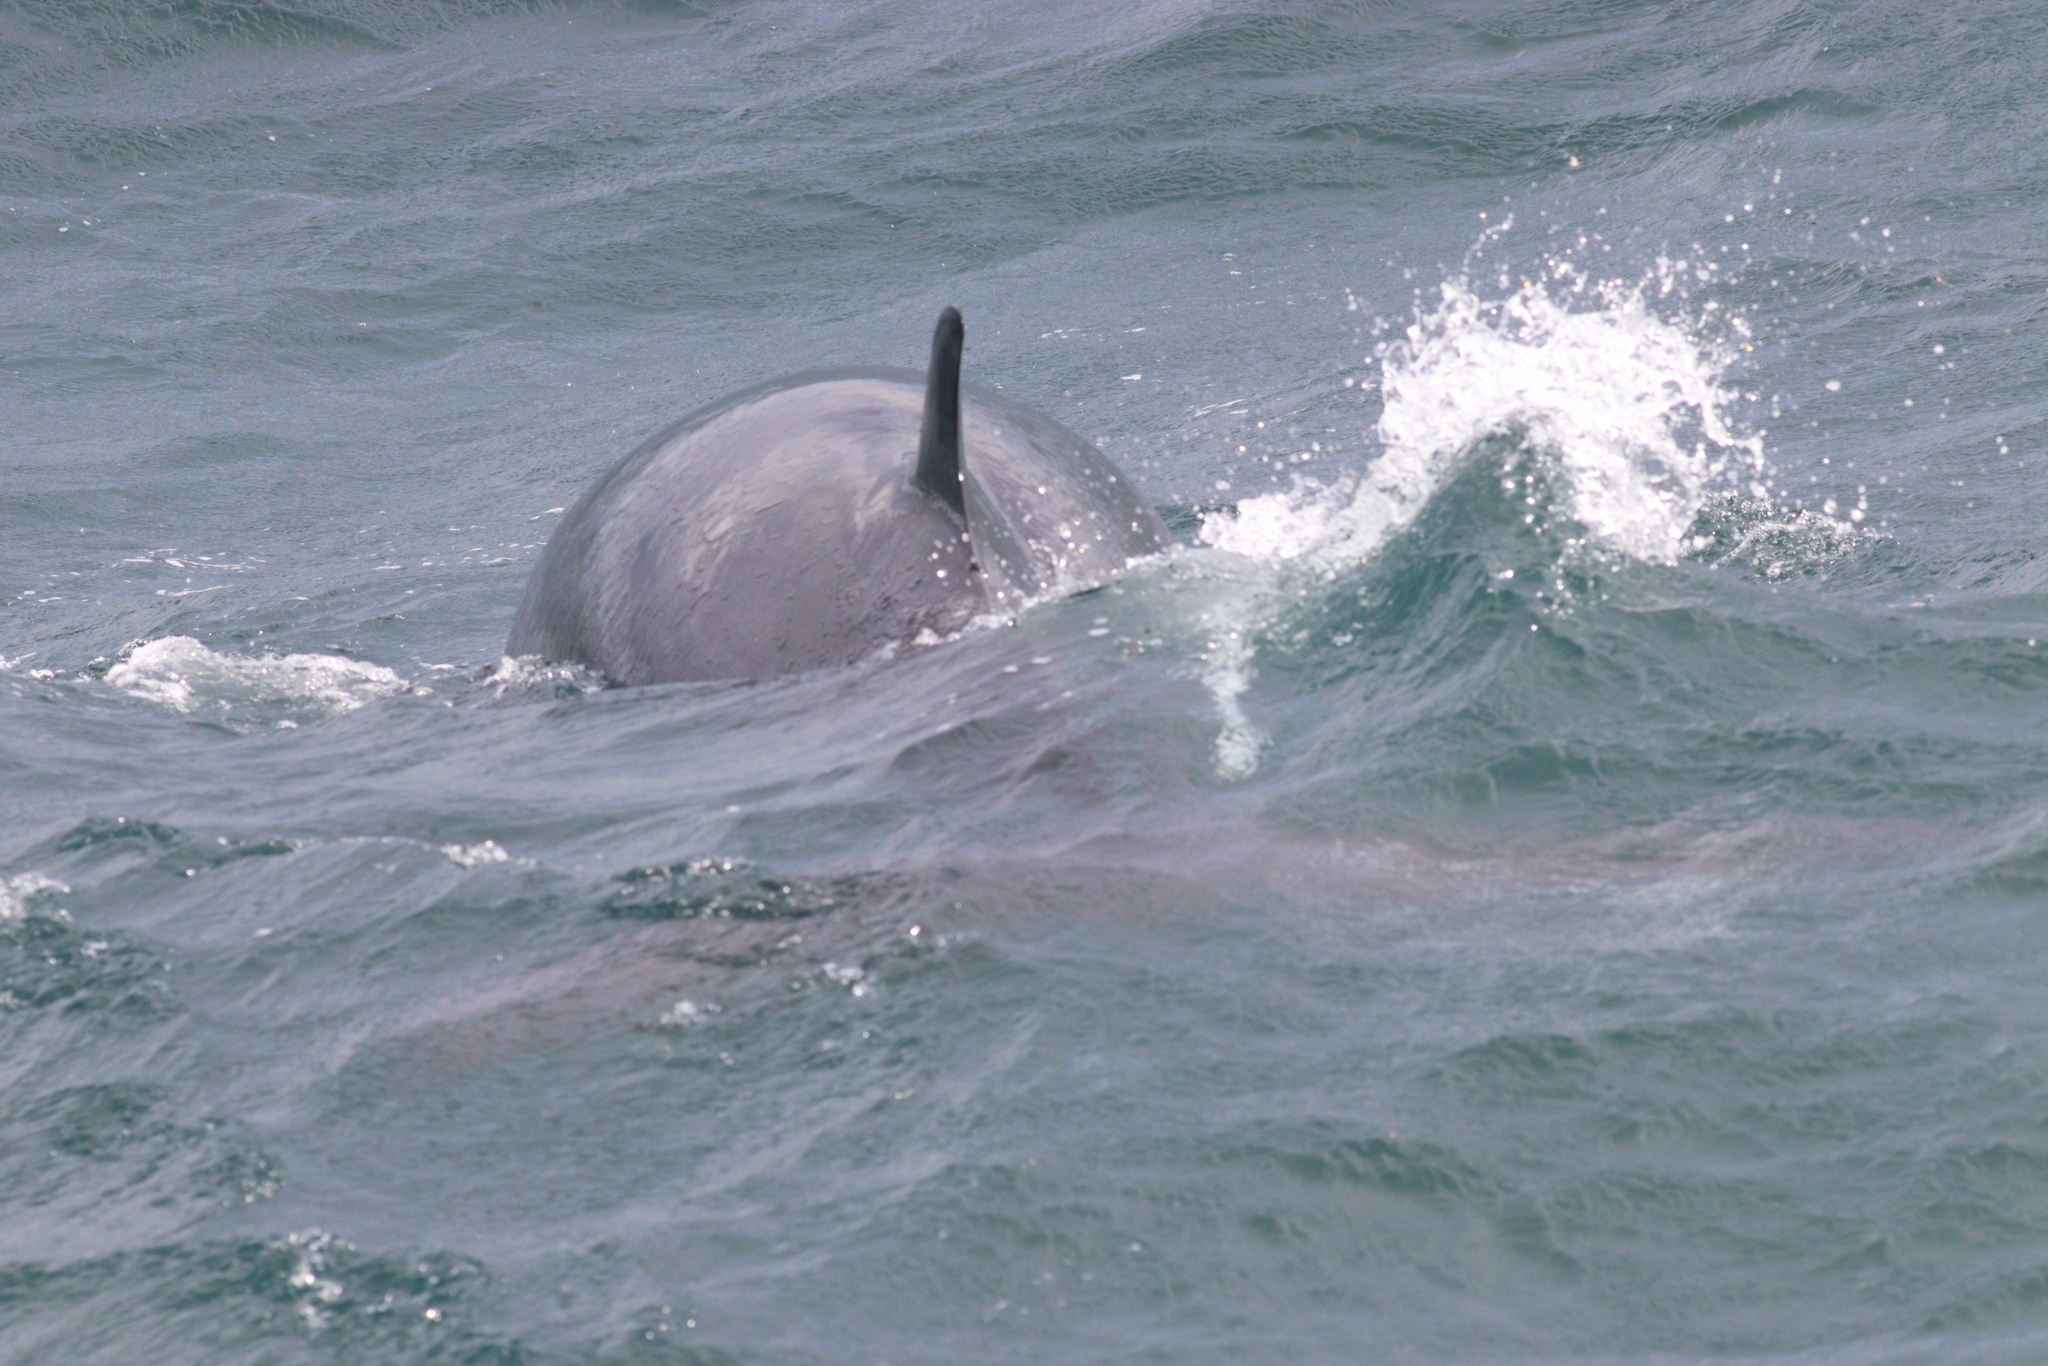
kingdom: Animalia
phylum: Chordata
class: Mammalia
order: Cetacea
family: Balaenopteridae
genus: Balaenoptera
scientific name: Balaenoptera acutorostrata
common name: Common minke whale
